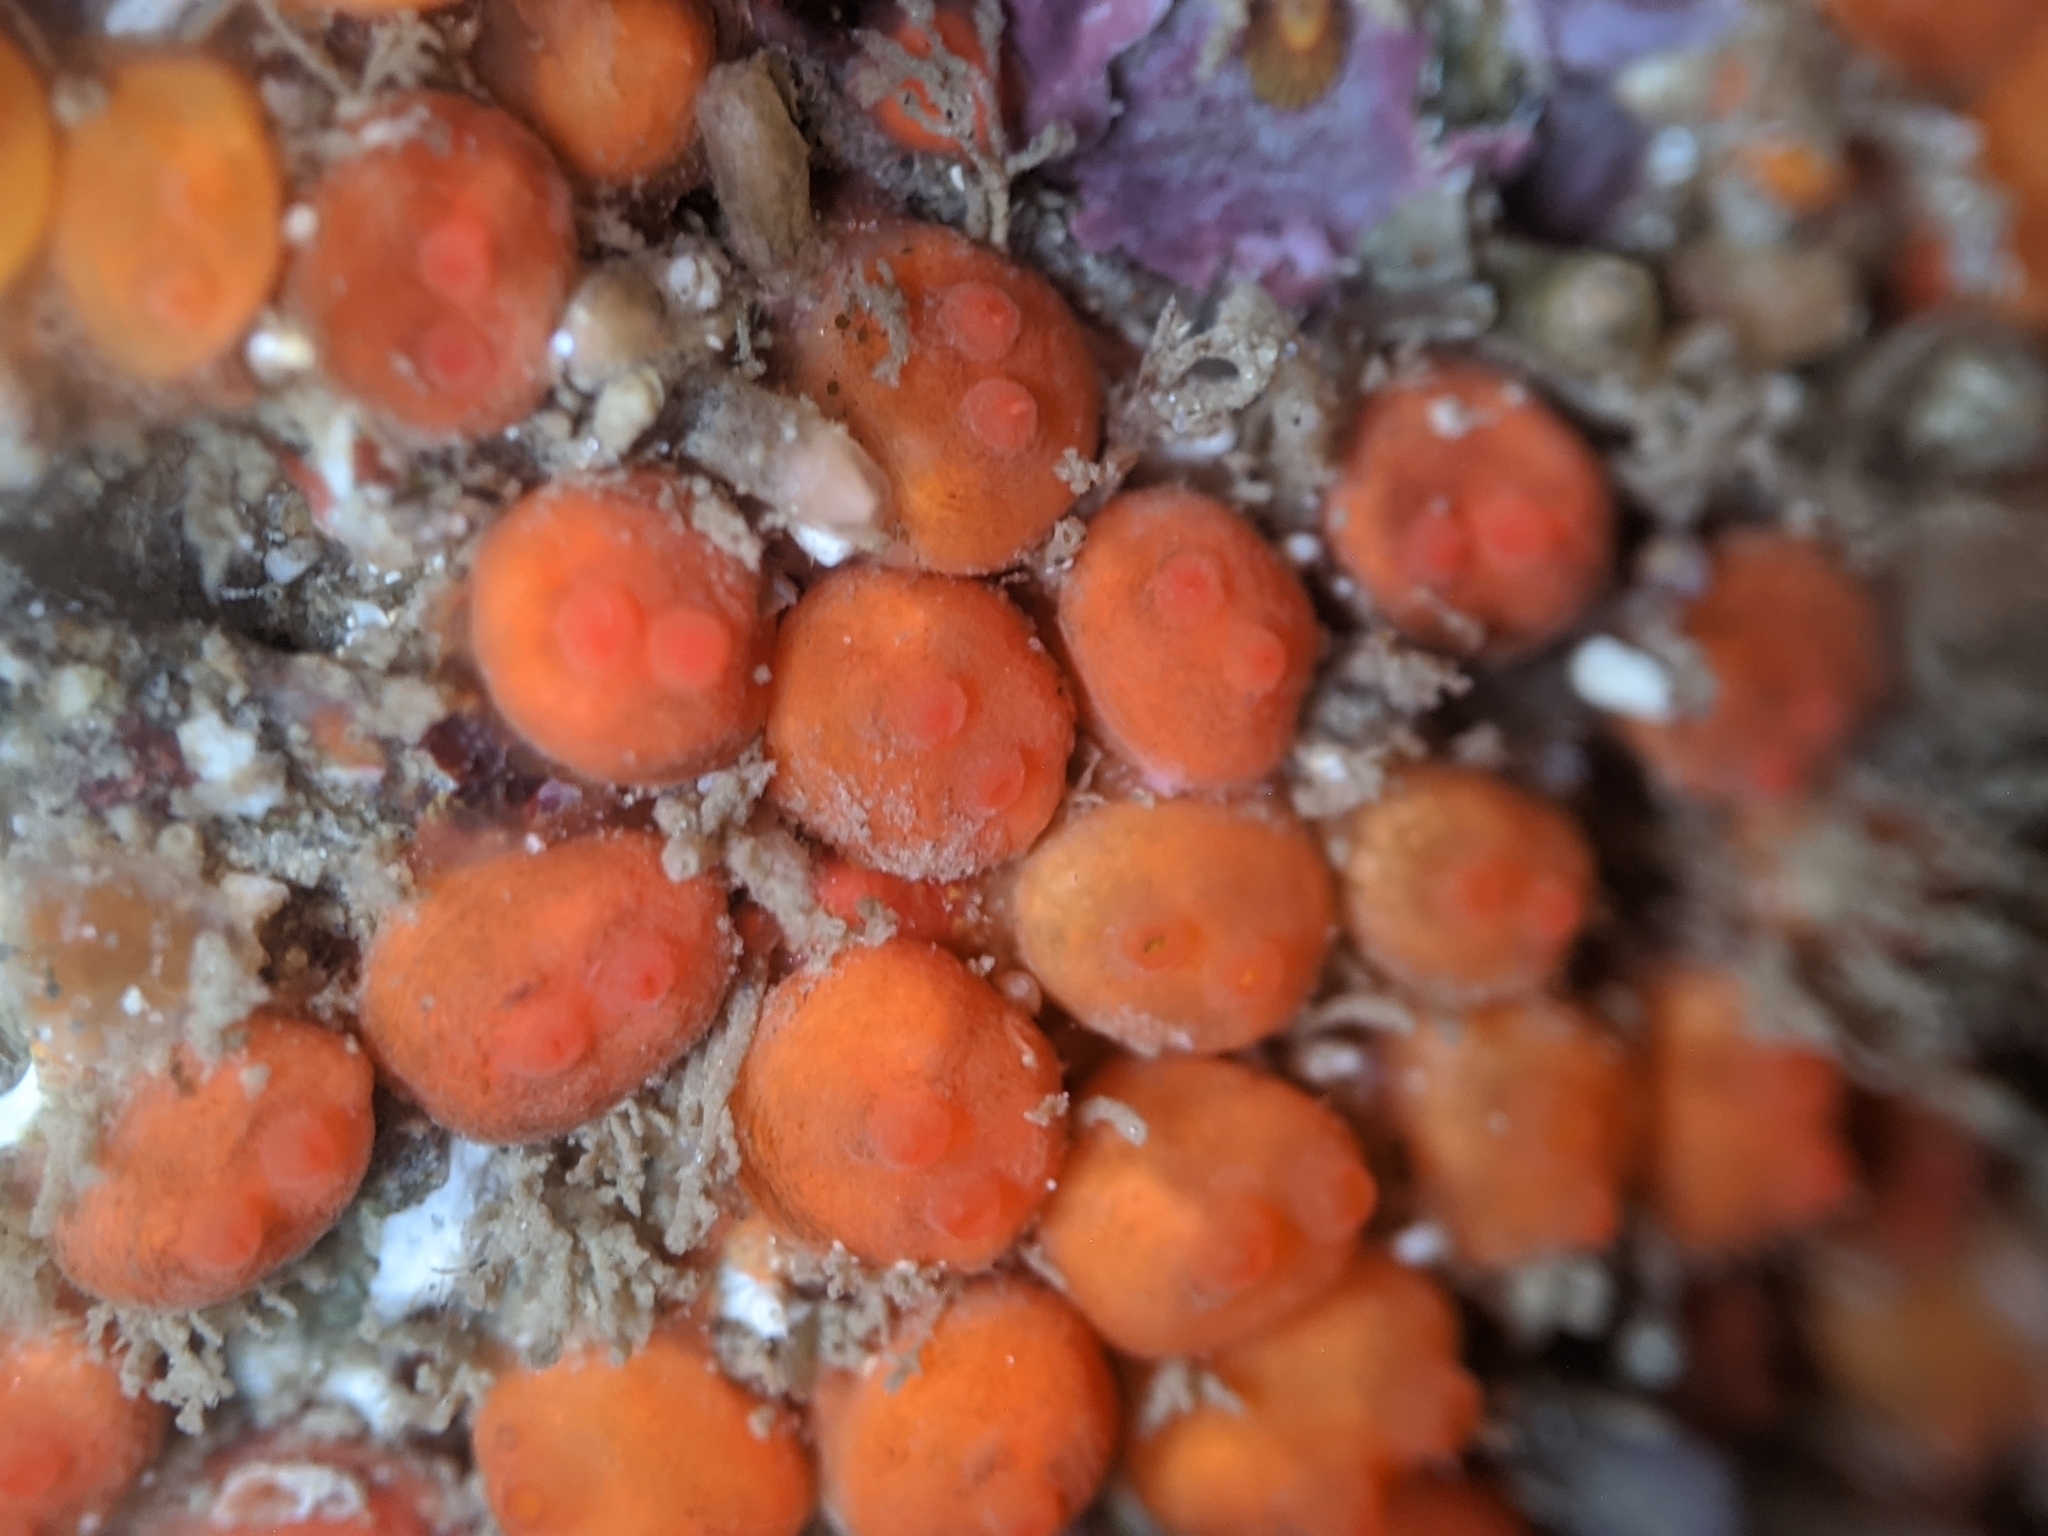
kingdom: Animalia
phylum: Chordata
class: Ascidiacea
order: Stolidobranchia
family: Styelidae
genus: Metandrocarpa
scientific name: Metandrocarpa taylori
